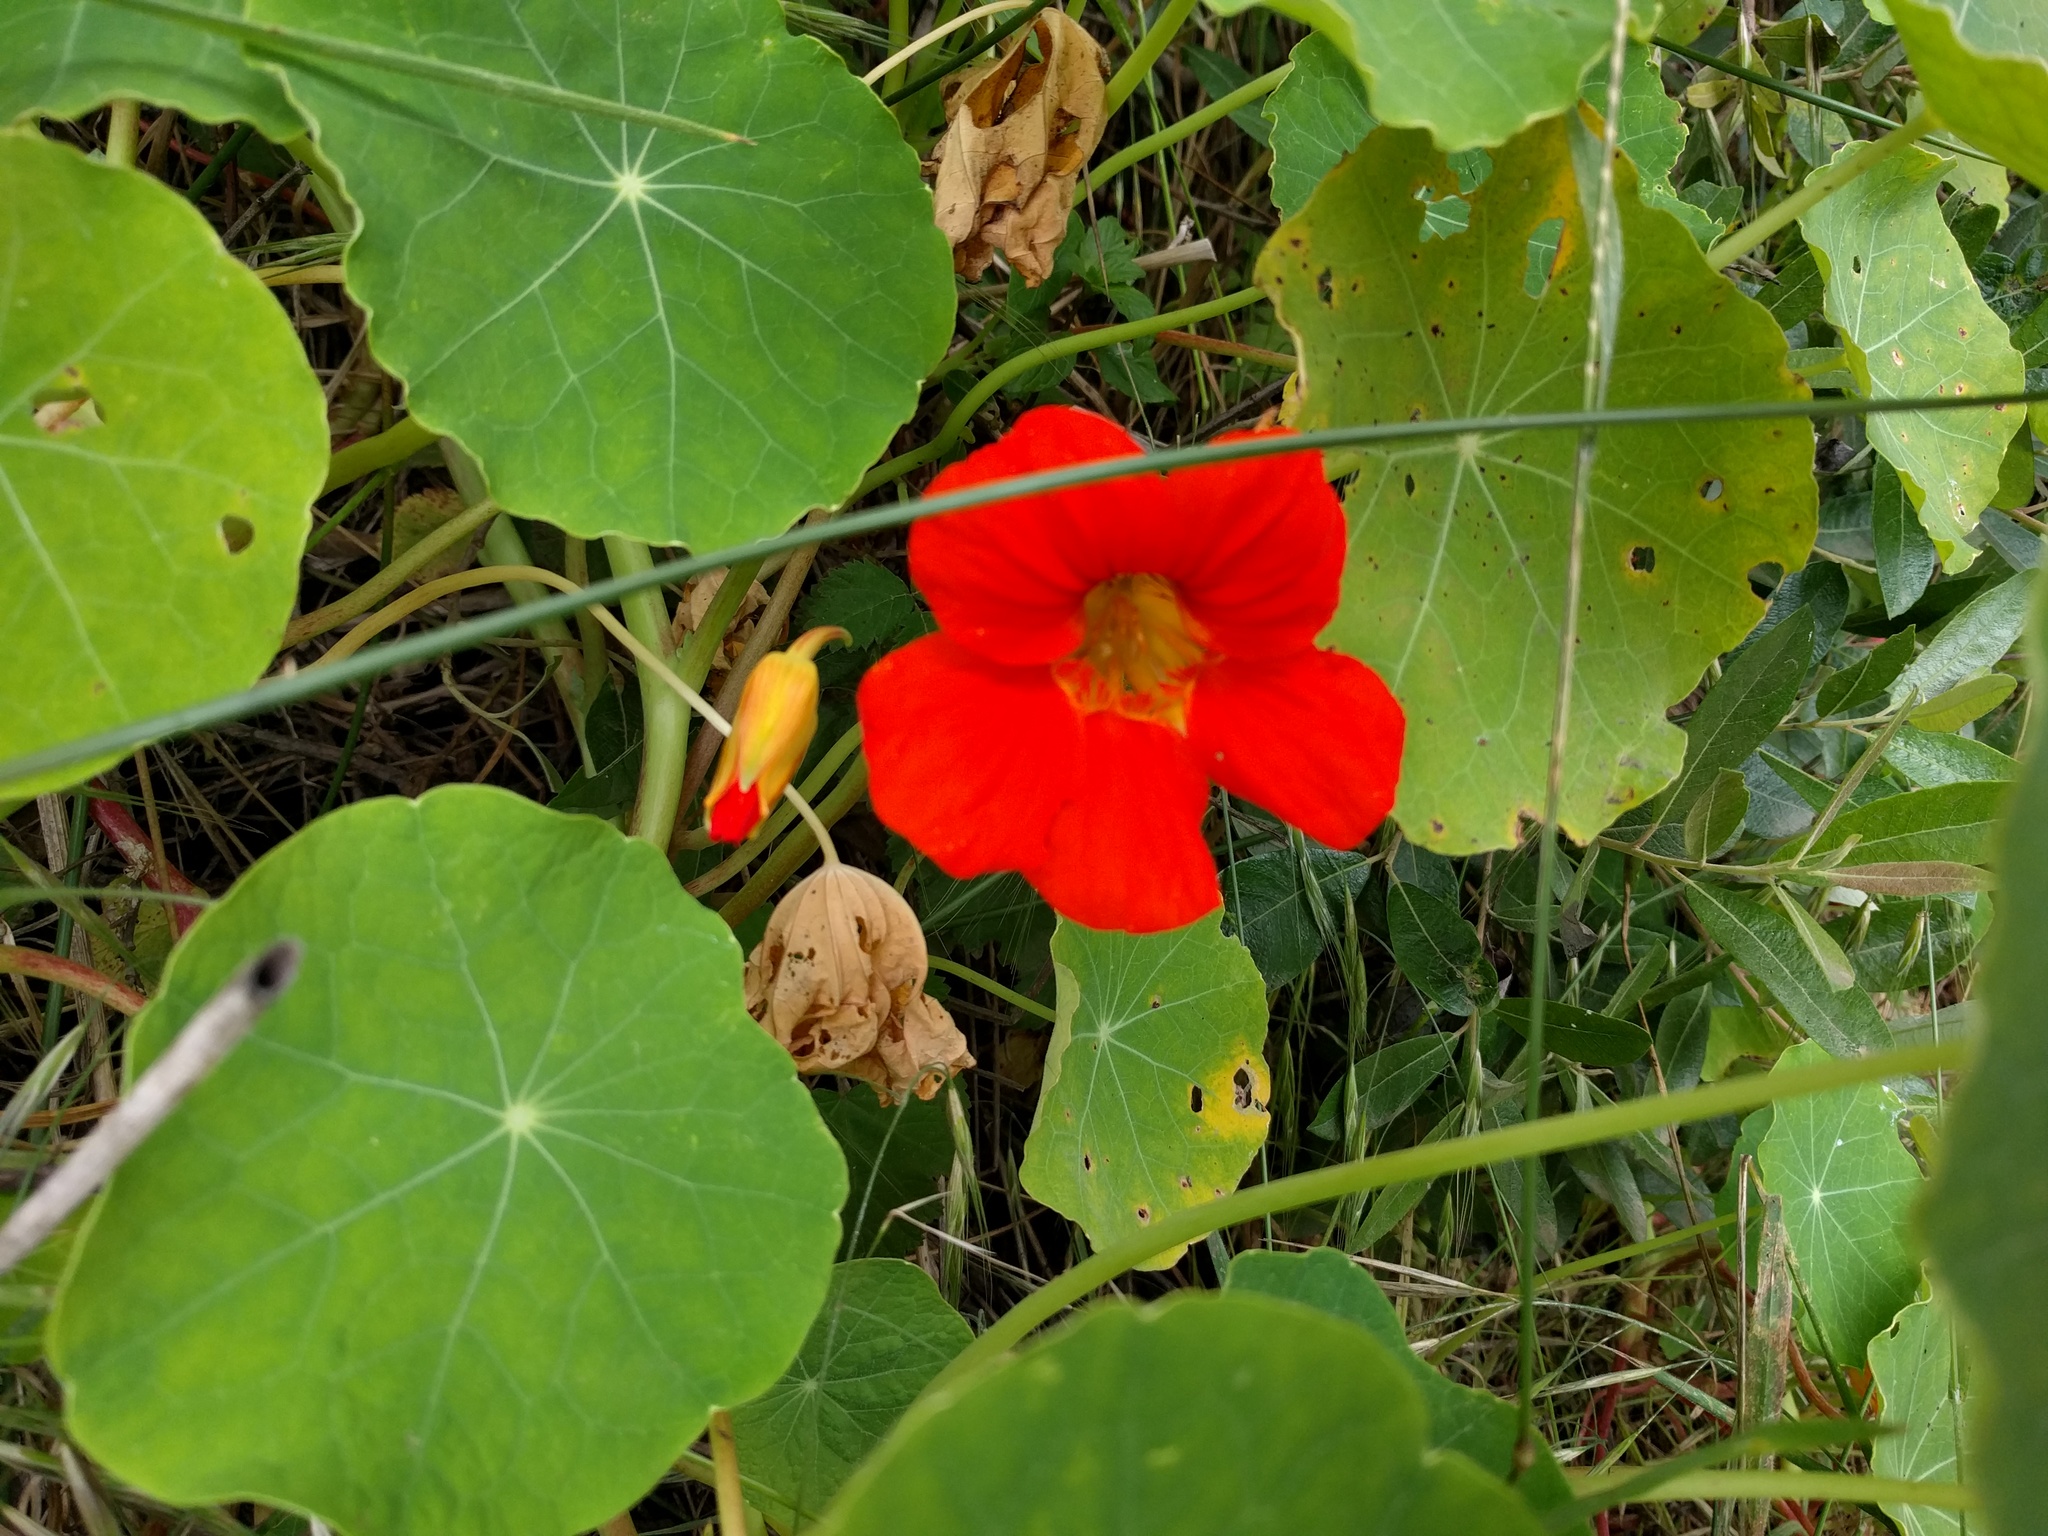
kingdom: Plantae
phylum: Tracheophyta
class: Magnoliopsida
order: Brassicales
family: Tropaeolaceae
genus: Tropaeolum
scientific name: Tropaeolum majus
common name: Nasturtium
